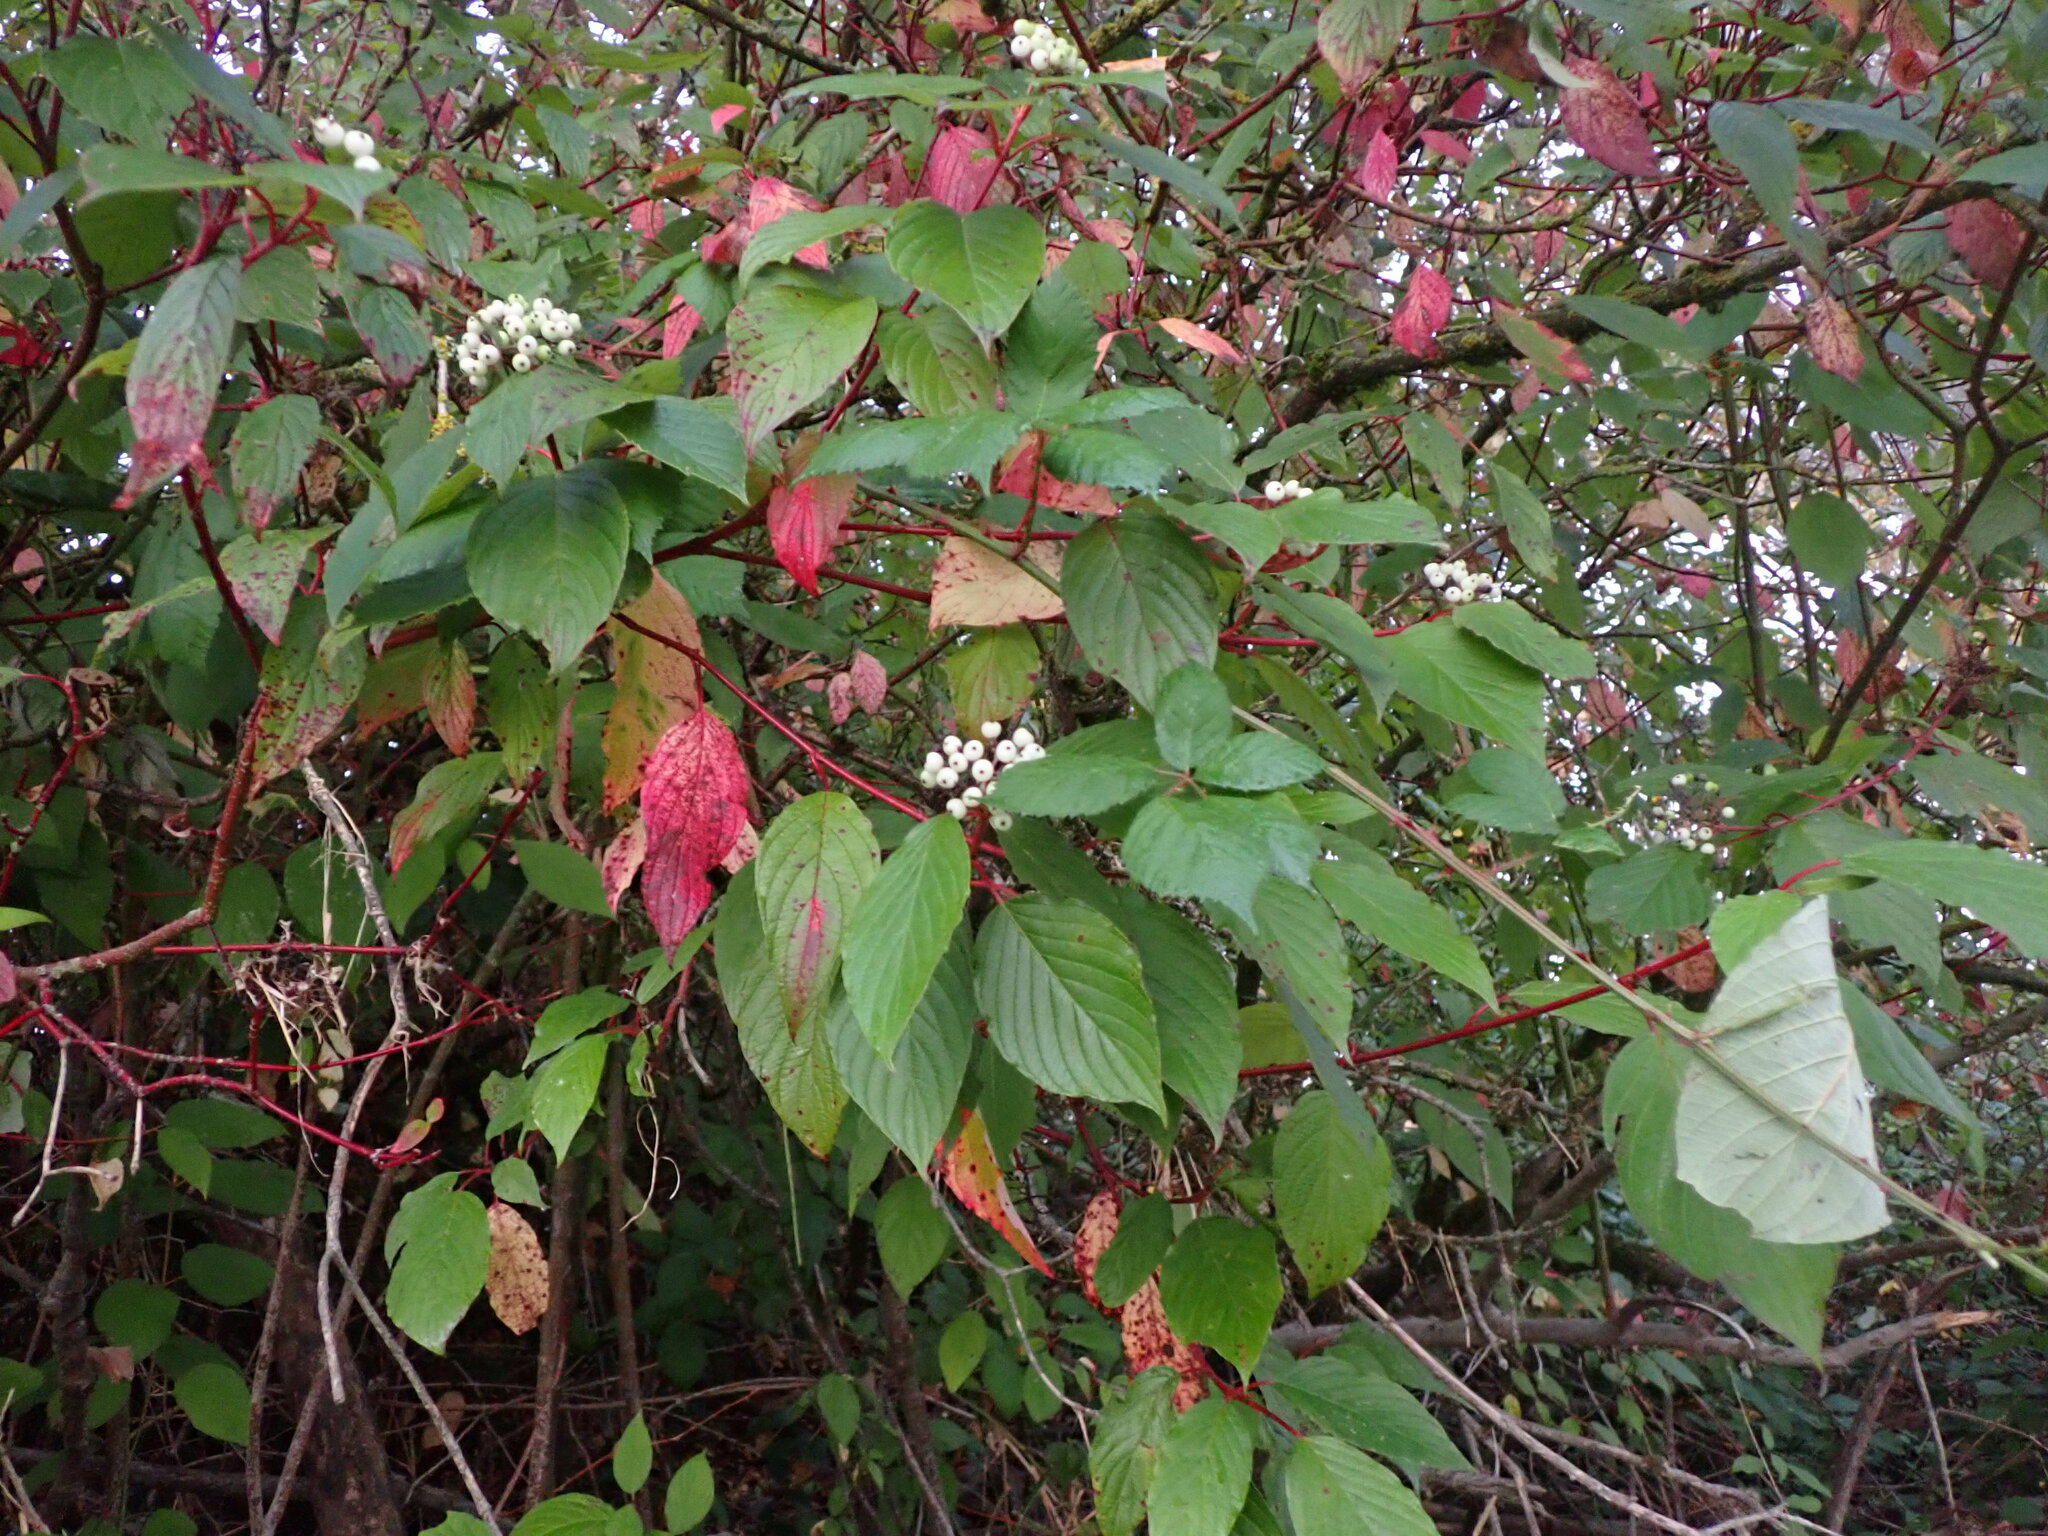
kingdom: Plantae
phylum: Tracheophyta
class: Magnoliopsida
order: Cornales
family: Cornaceae
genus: Cornus
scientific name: Cornus sericea
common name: Red-osier dogwood
